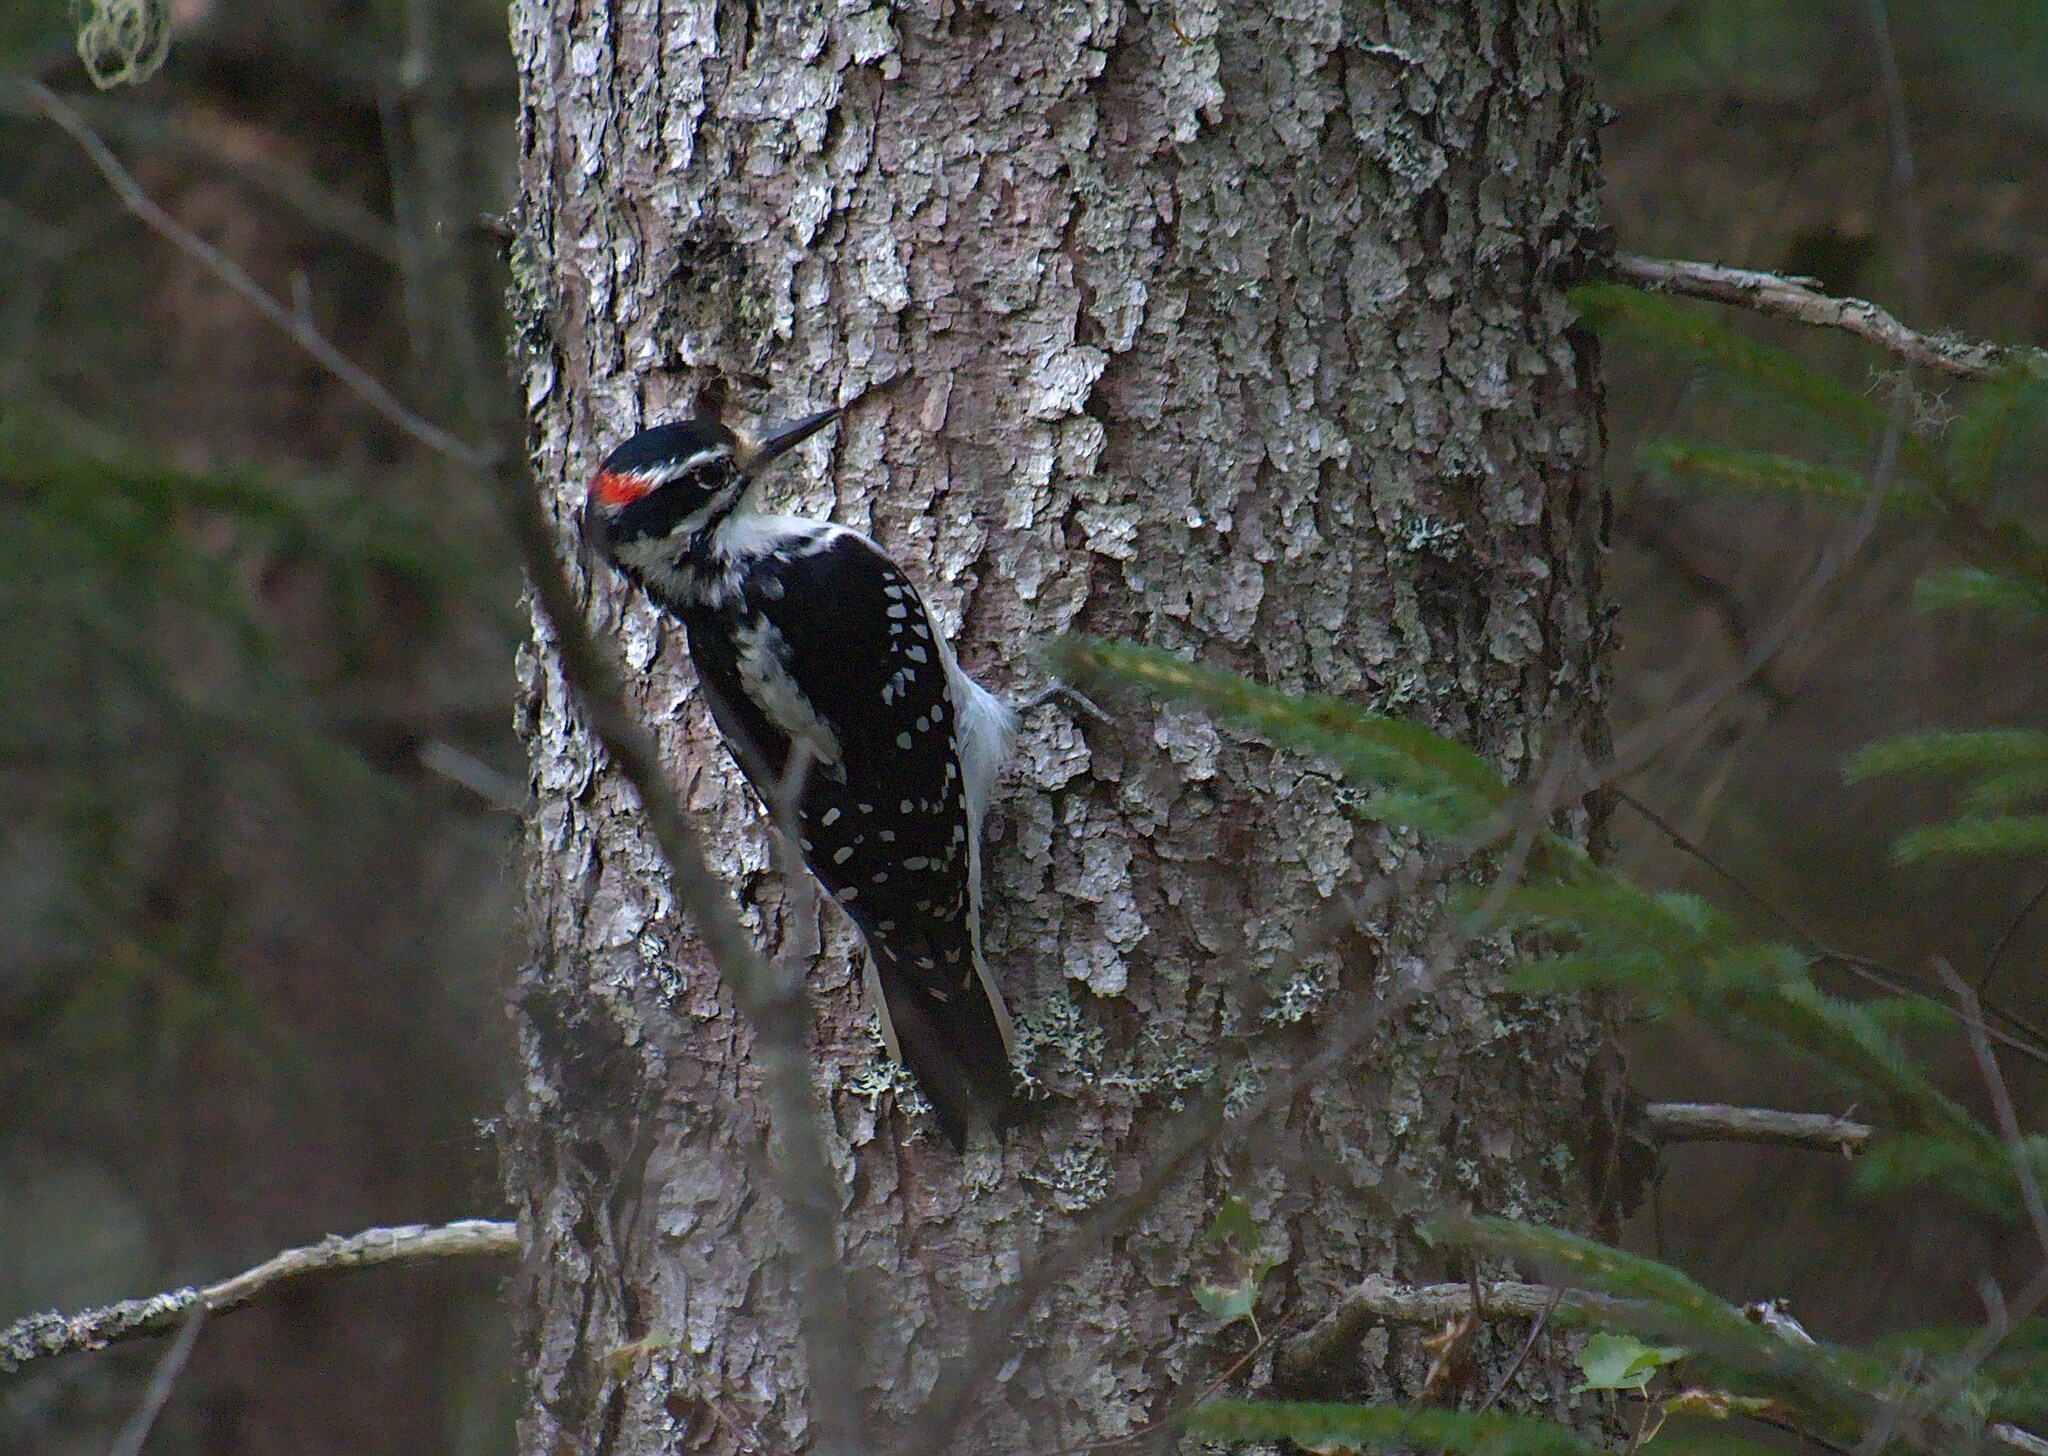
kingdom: Animalia
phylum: Chordata
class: Aves
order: Piciformes
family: Picidae
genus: Leuconotopicus
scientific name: Leuconotopicus villosus
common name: Hairy woodpecker
